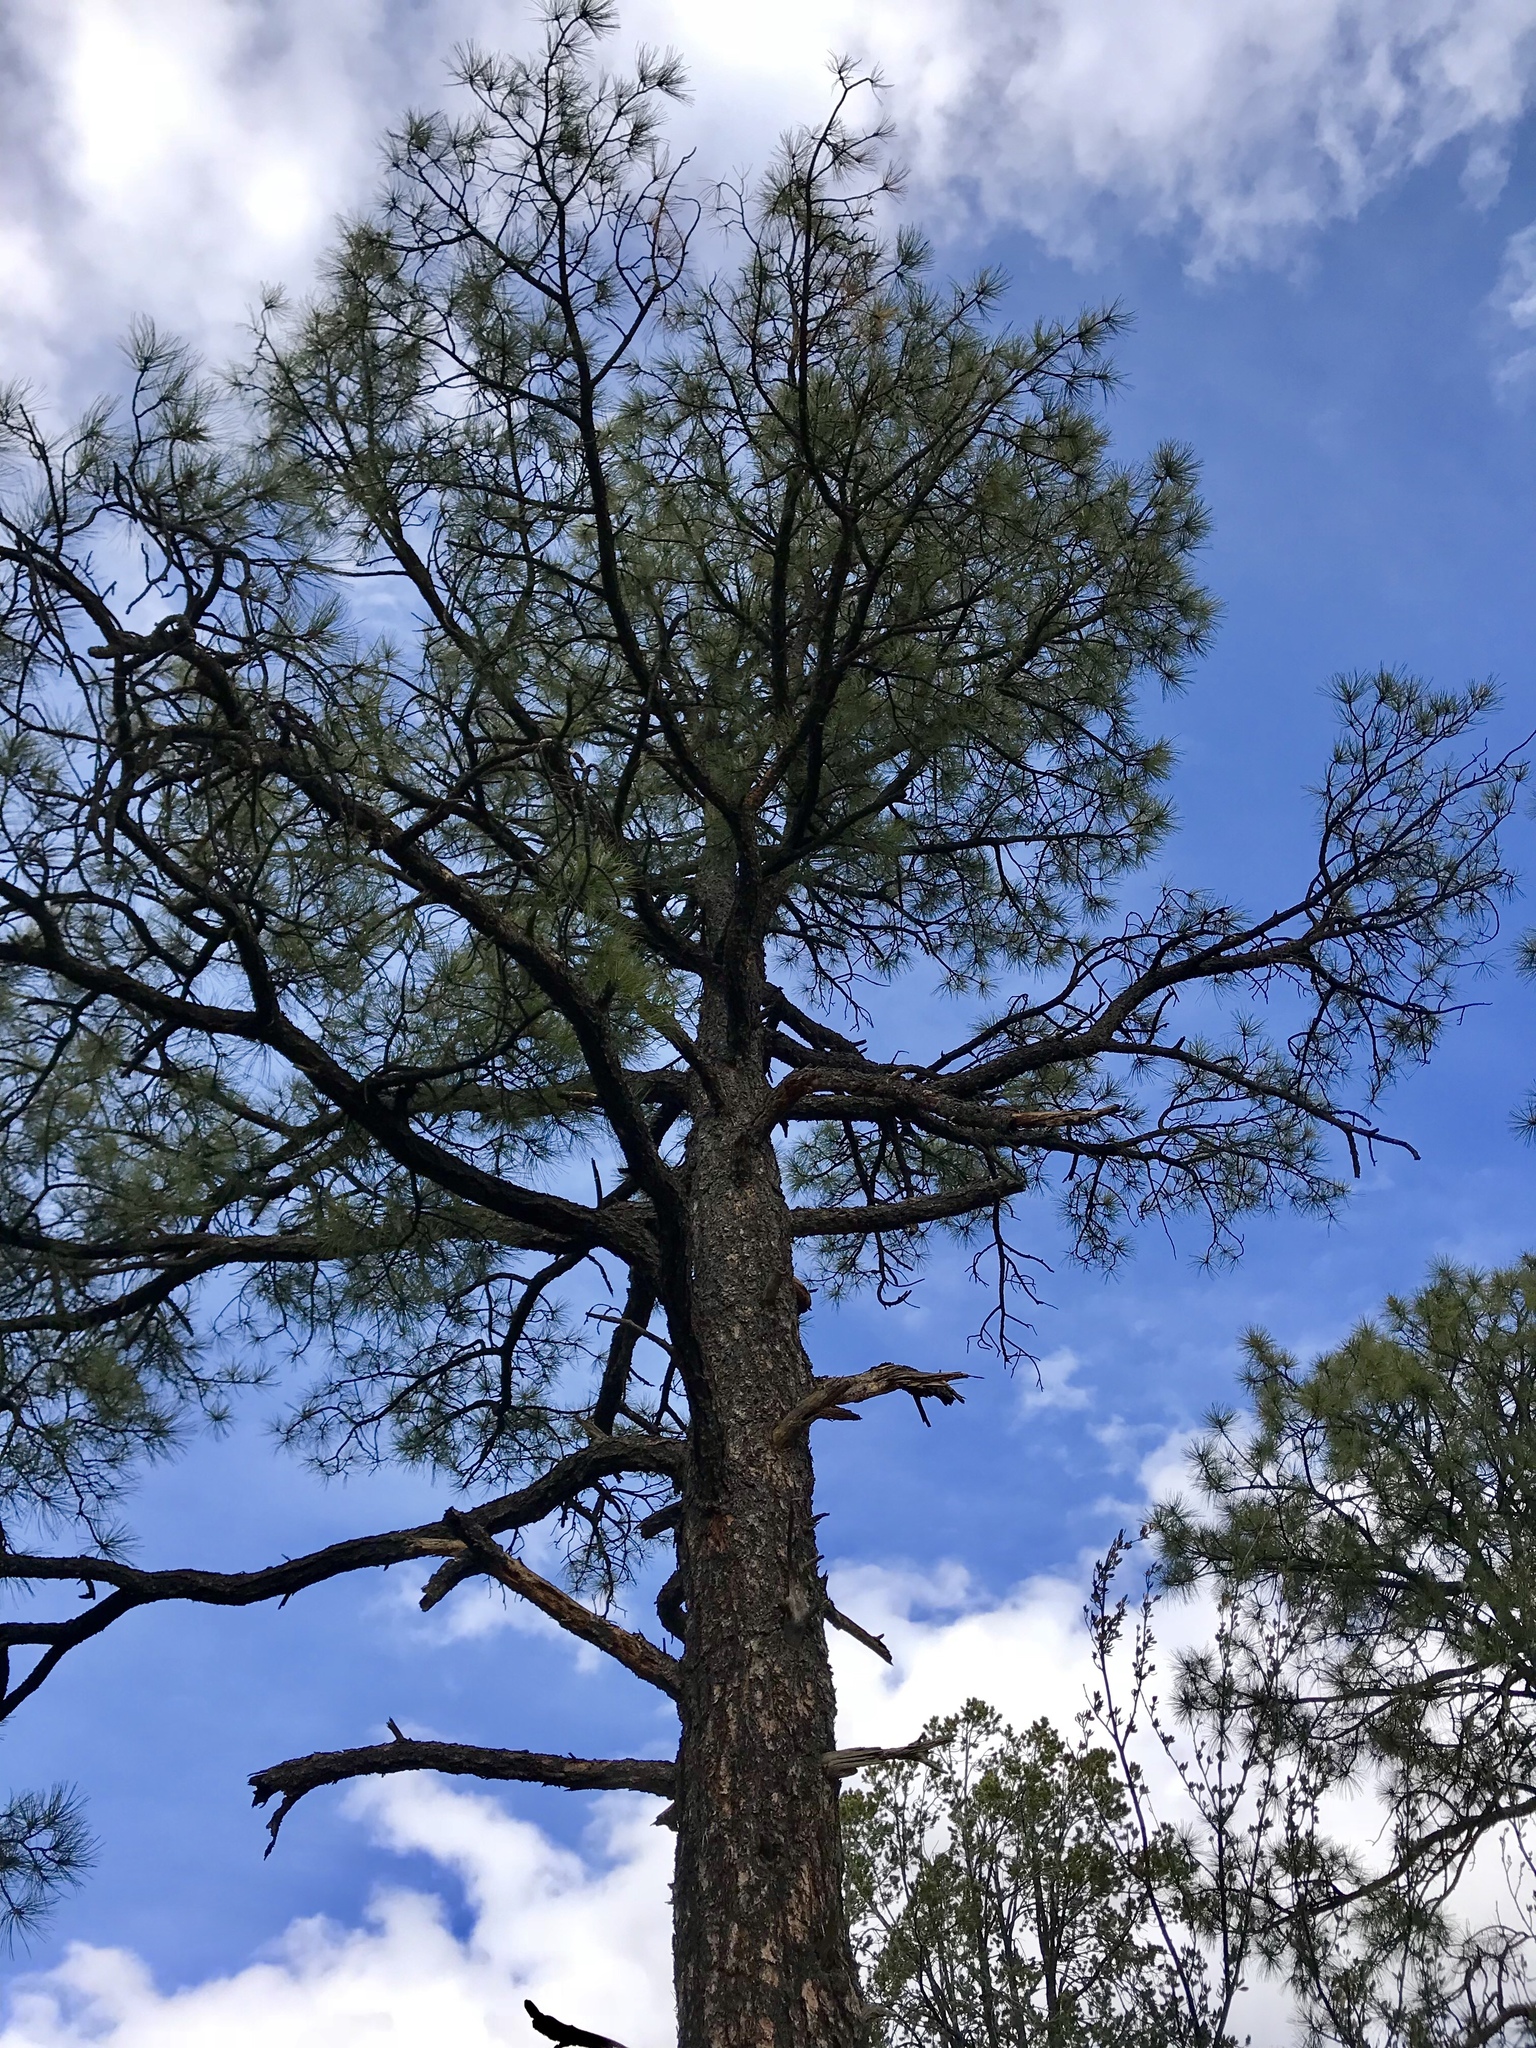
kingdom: Plantae
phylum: Tracheophyta
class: Pinopsida
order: Pinales
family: Pinaceae
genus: Pinus
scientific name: Pinus ponderosa
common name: Western yellow-pine
